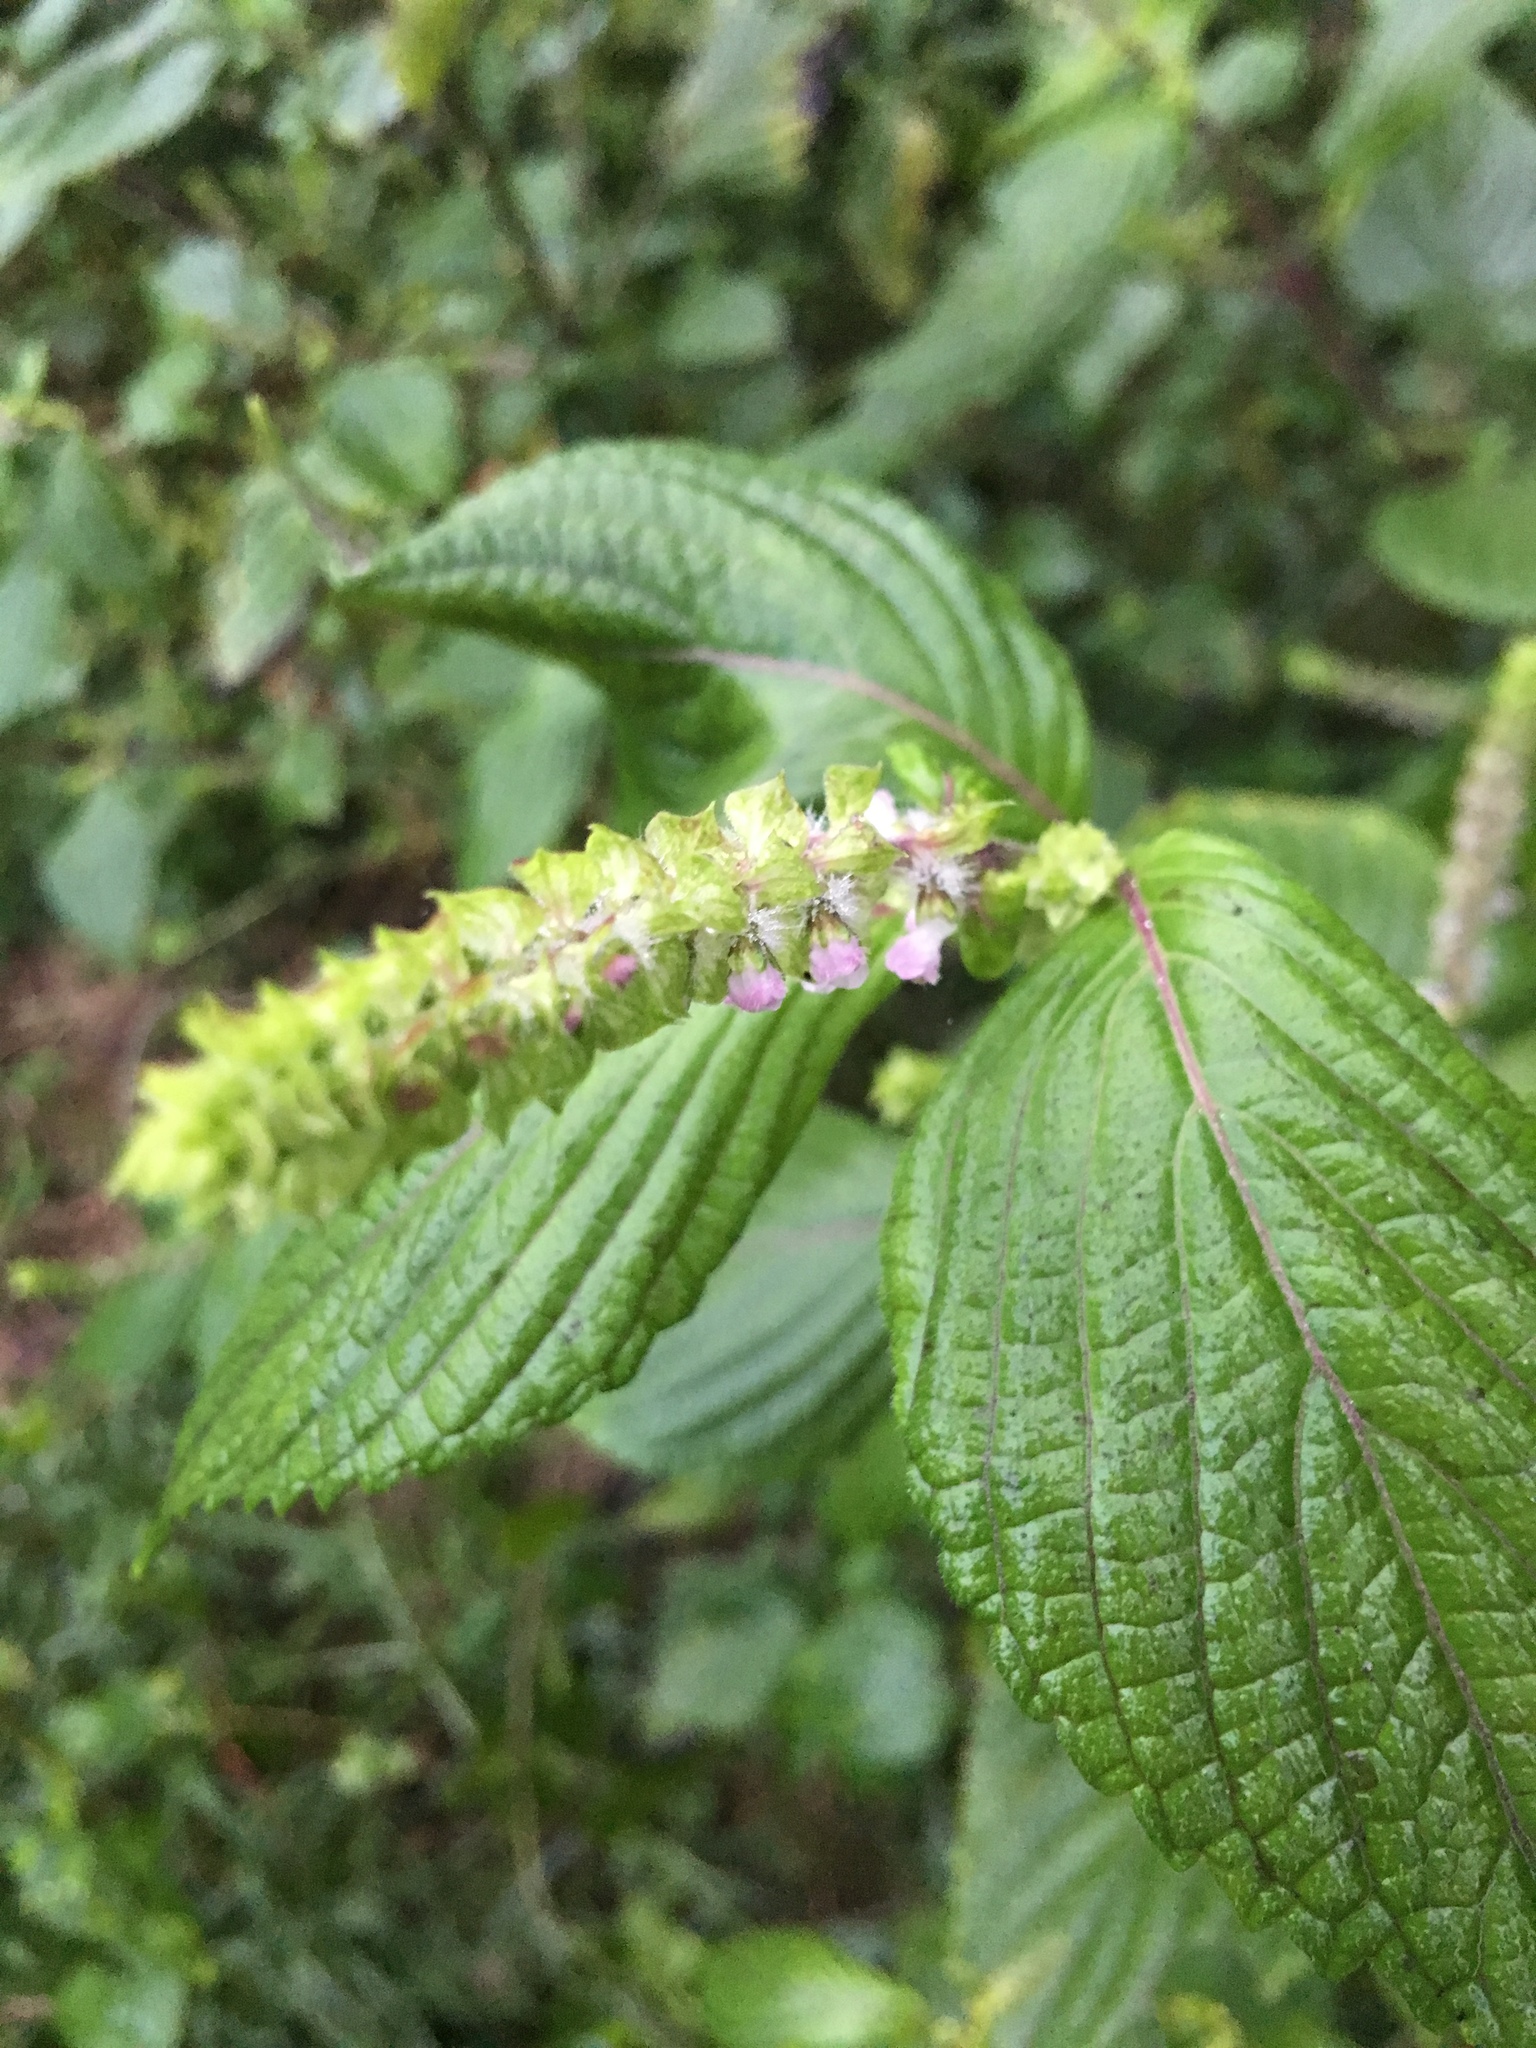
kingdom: Plantae
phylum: Tracheophyta
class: Magnoliopsida
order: Lamiales
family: Lamiaceae
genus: Perilla
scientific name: Perilla frutescens
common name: Perilla
